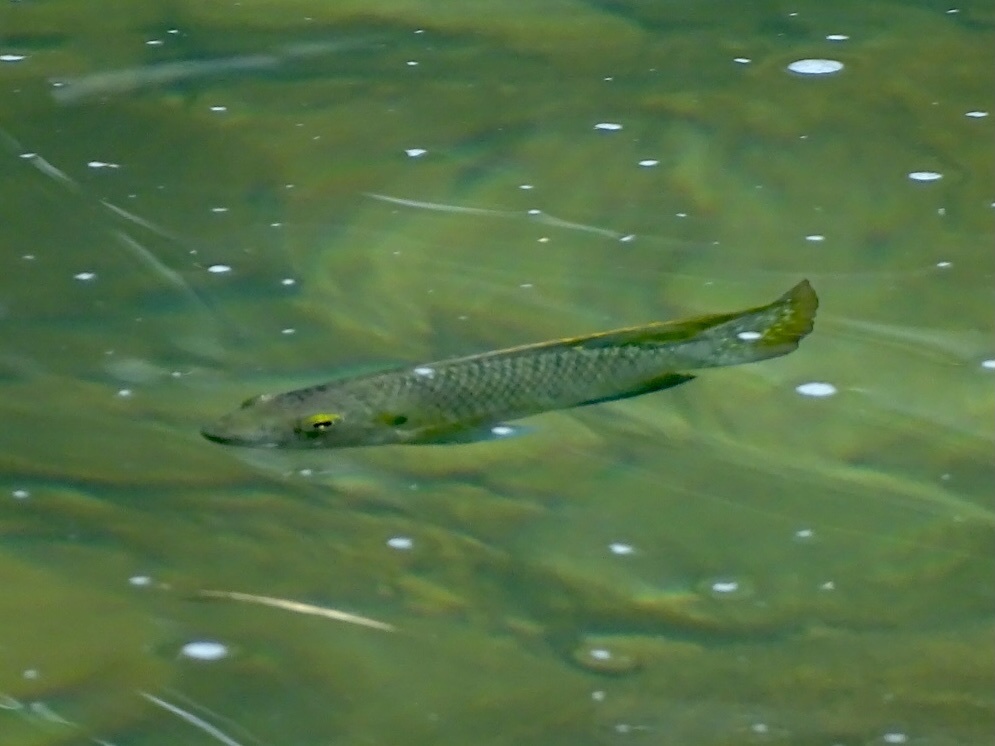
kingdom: Animalia
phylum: Chordata
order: Perciformes
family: Cichlidae
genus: Coptodon
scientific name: Coptodon zillii
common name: Redbelly tilapia
